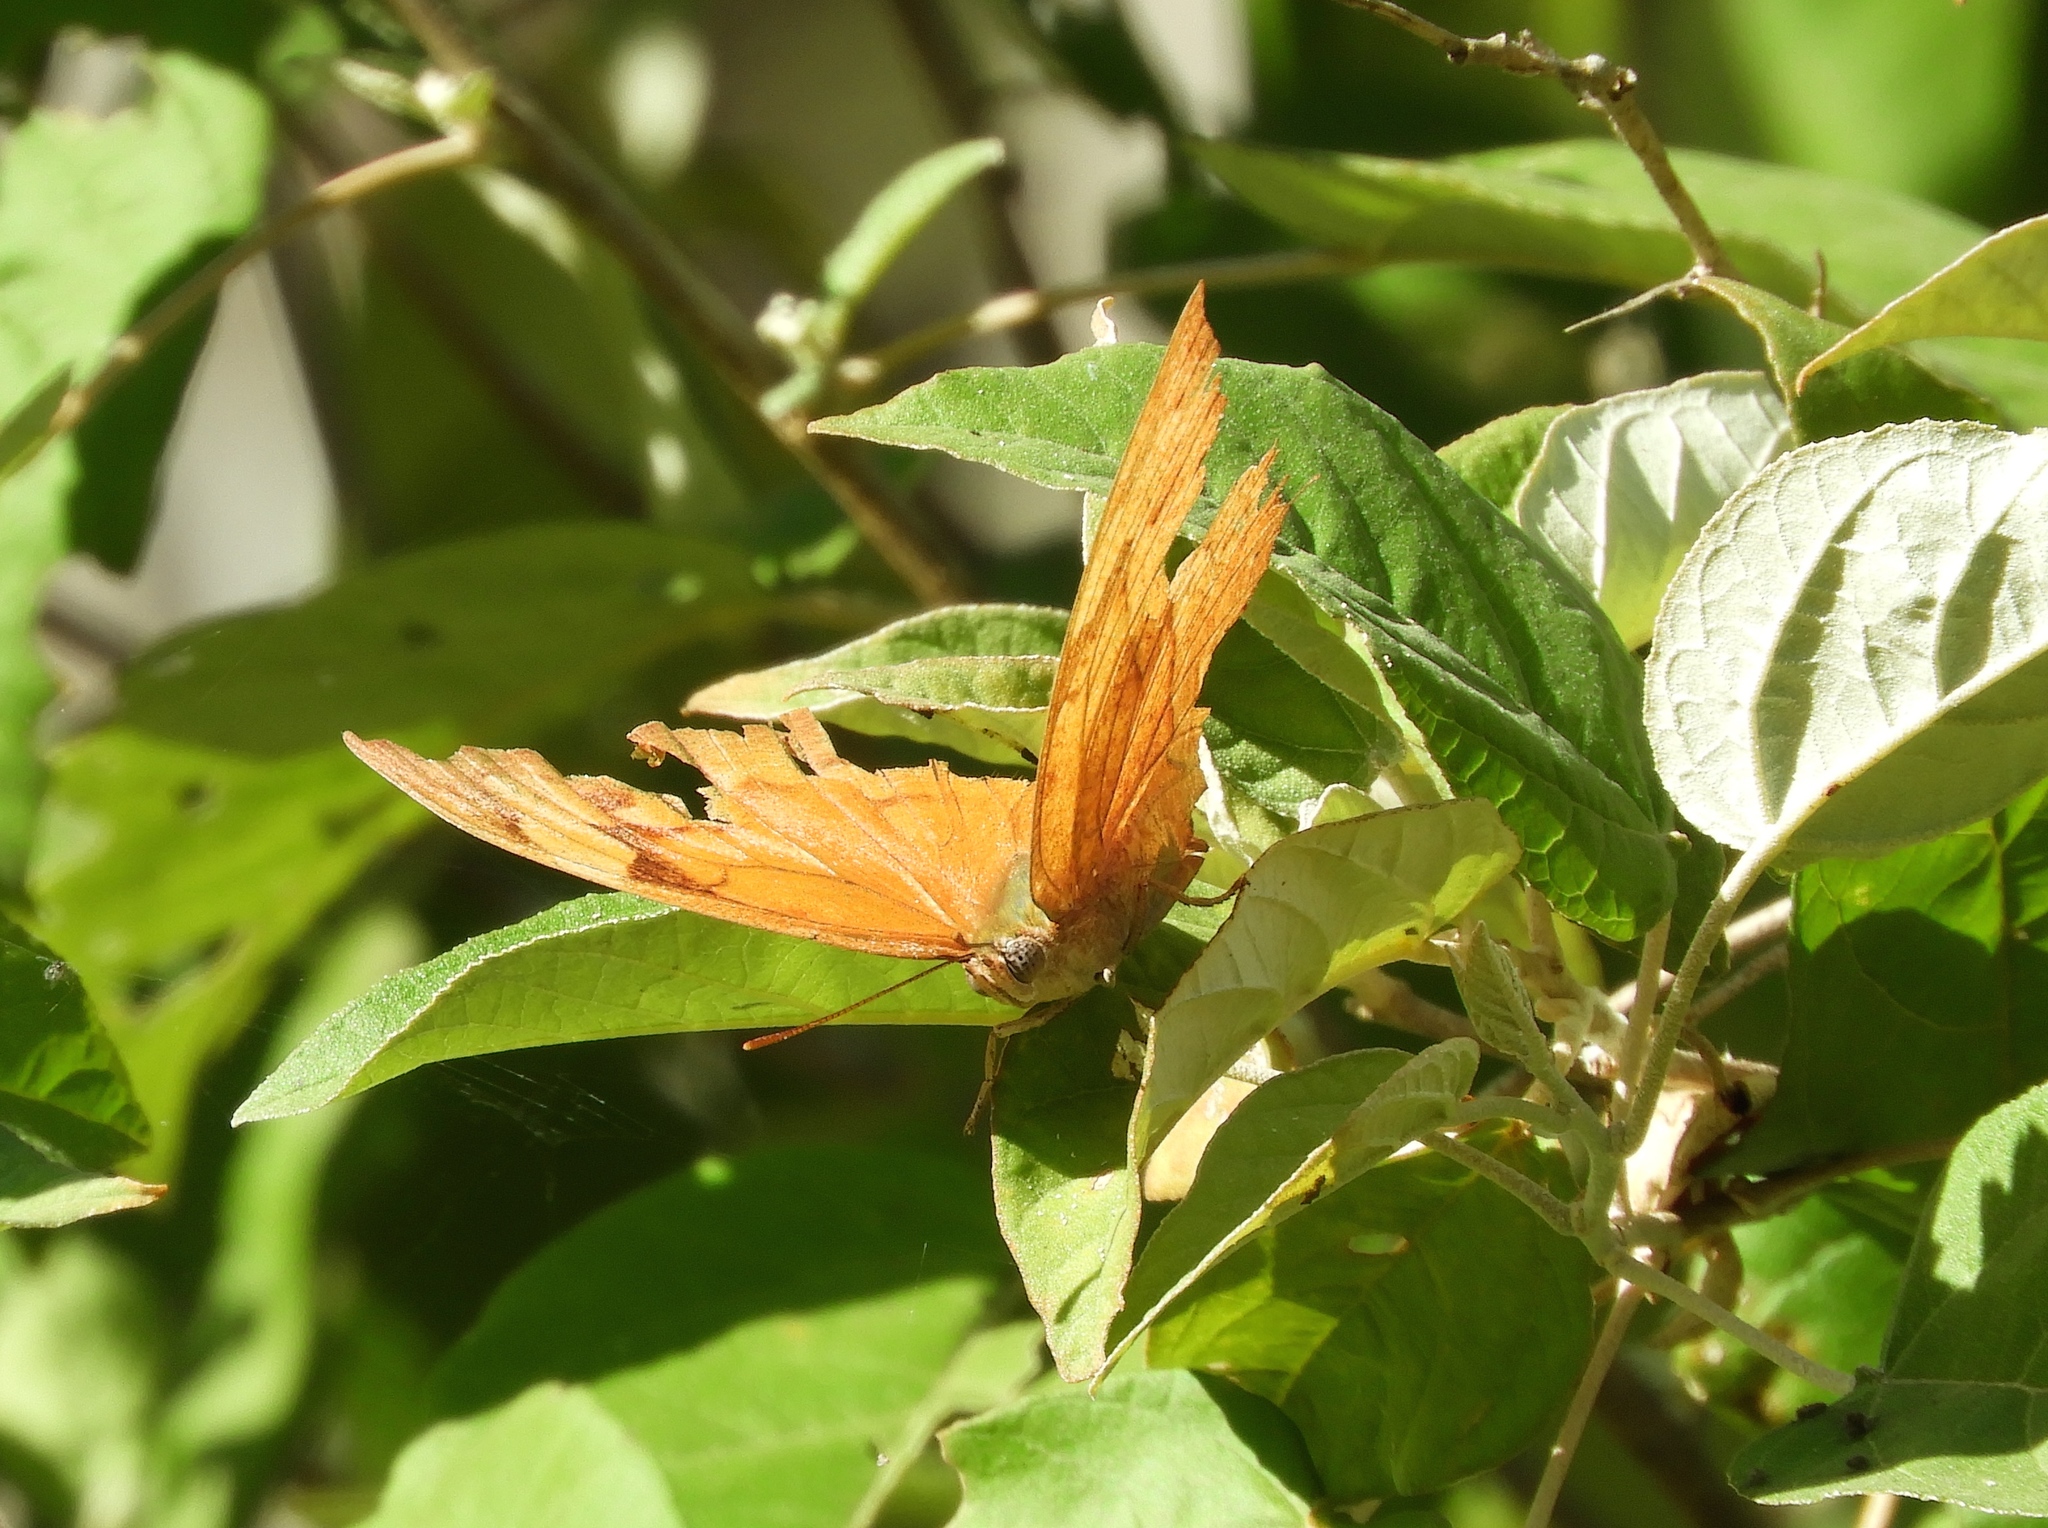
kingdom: Animalia
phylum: Arthropoda
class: Insecta
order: Lepidoptera
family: Nymphalidae
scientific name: Nymphalidae
